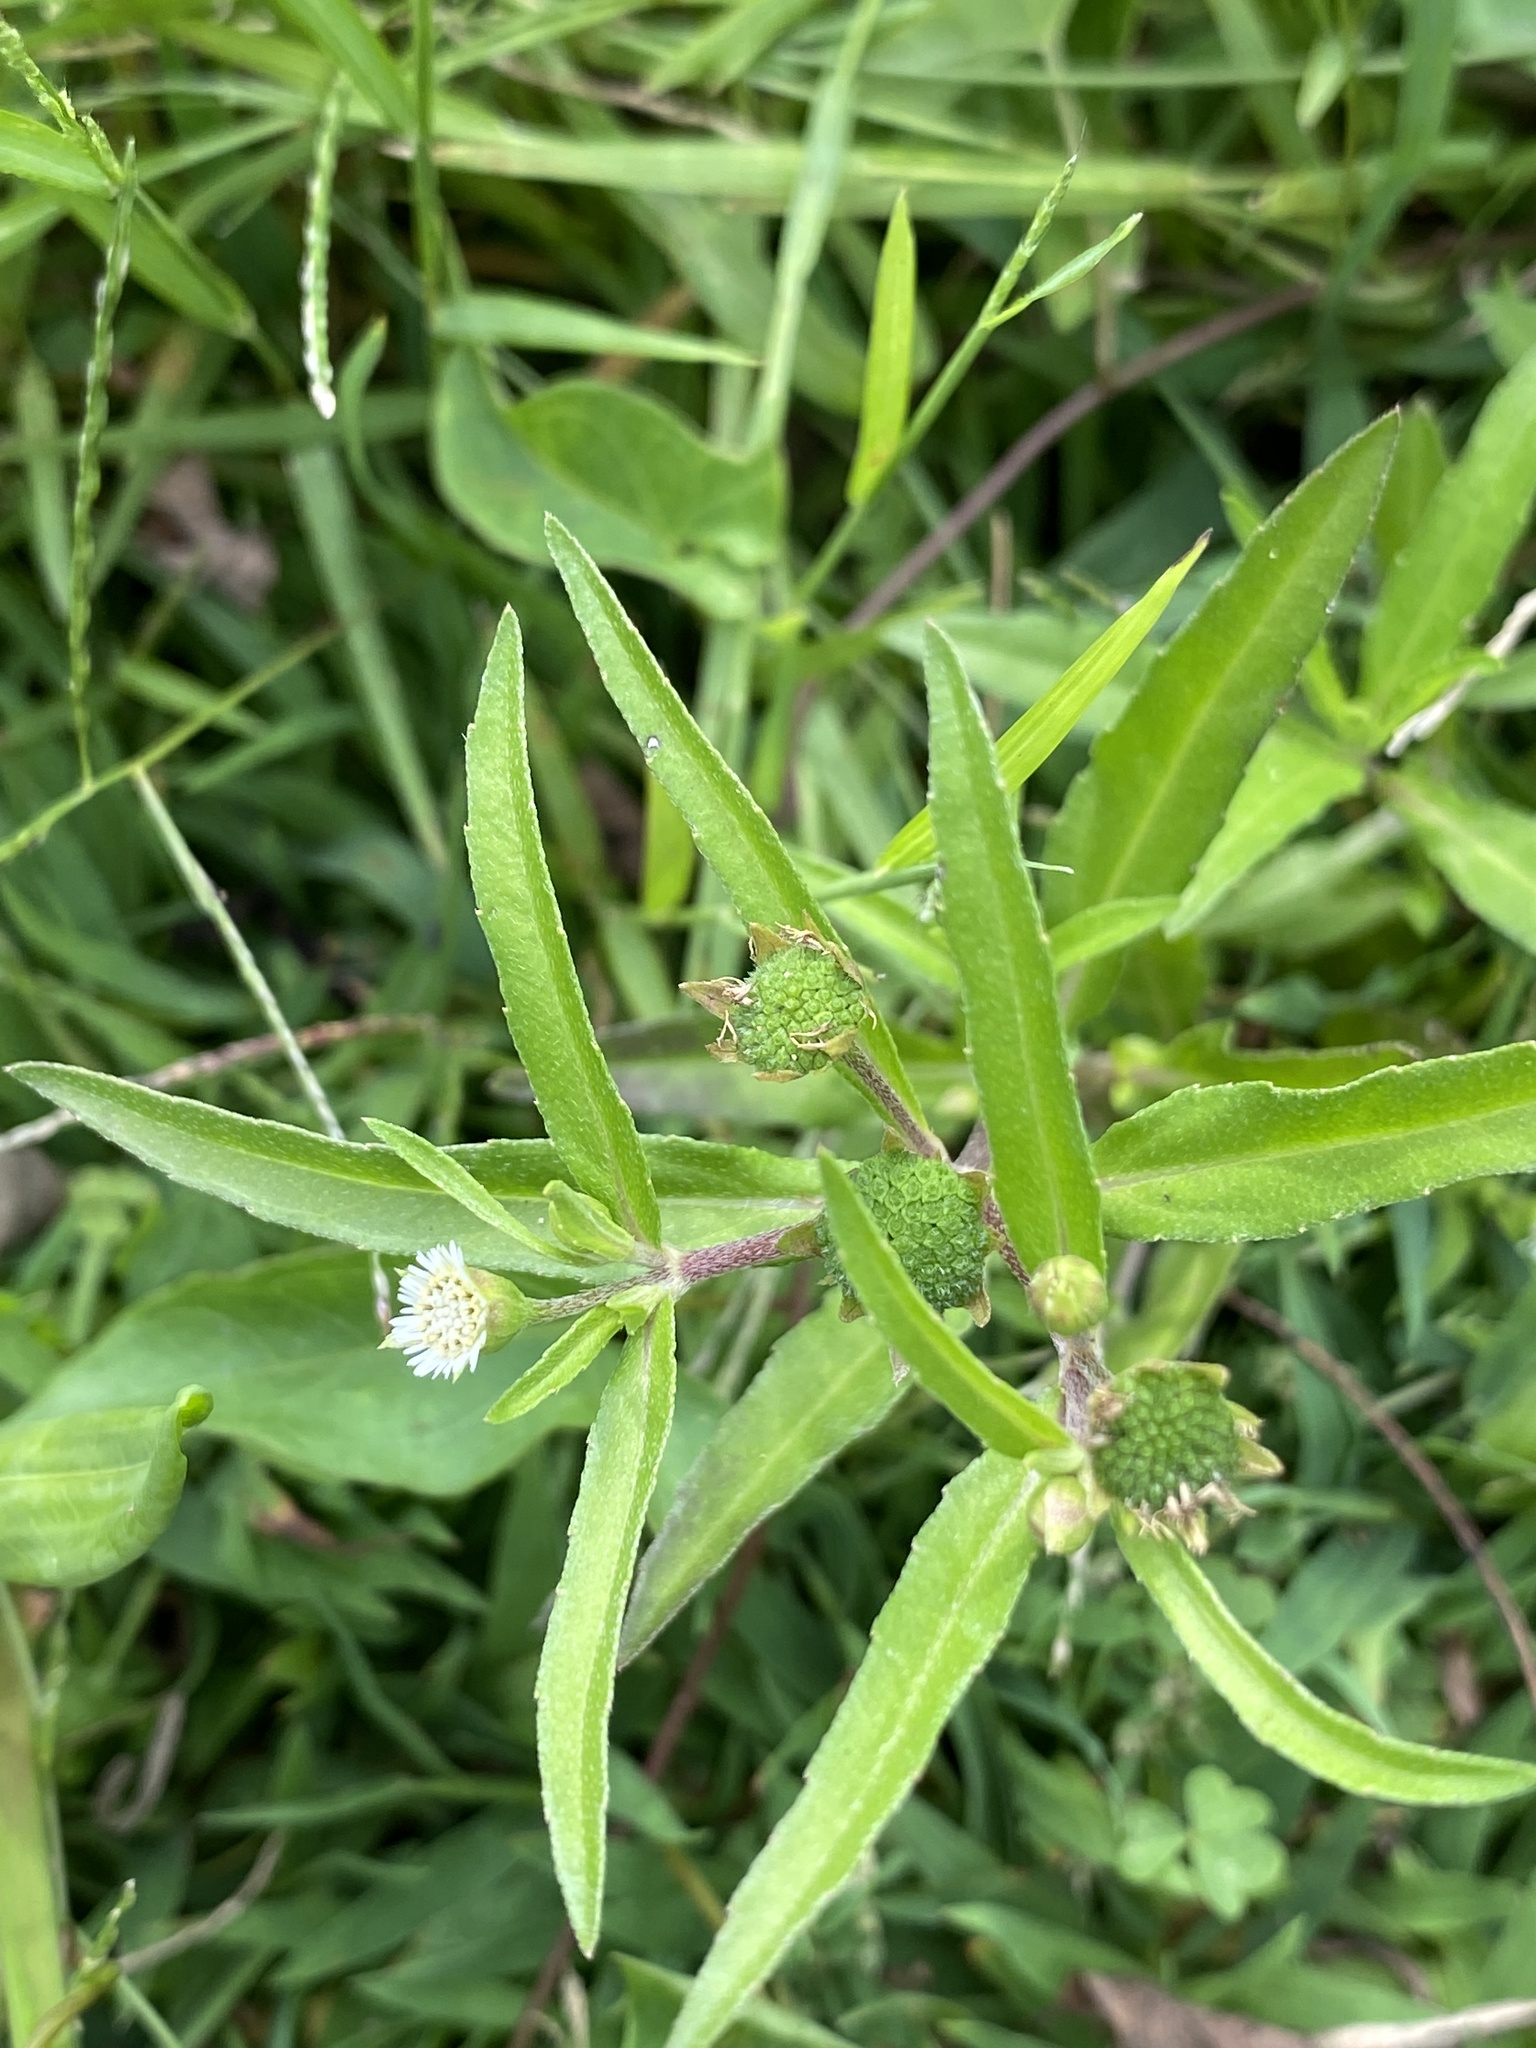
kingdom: Plantae
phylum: Tracheophyta
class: Magnoliopsida
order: Asterales
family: Asteraceae
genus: Eclipta
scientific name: Eclipta prostrata
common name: False daisy
